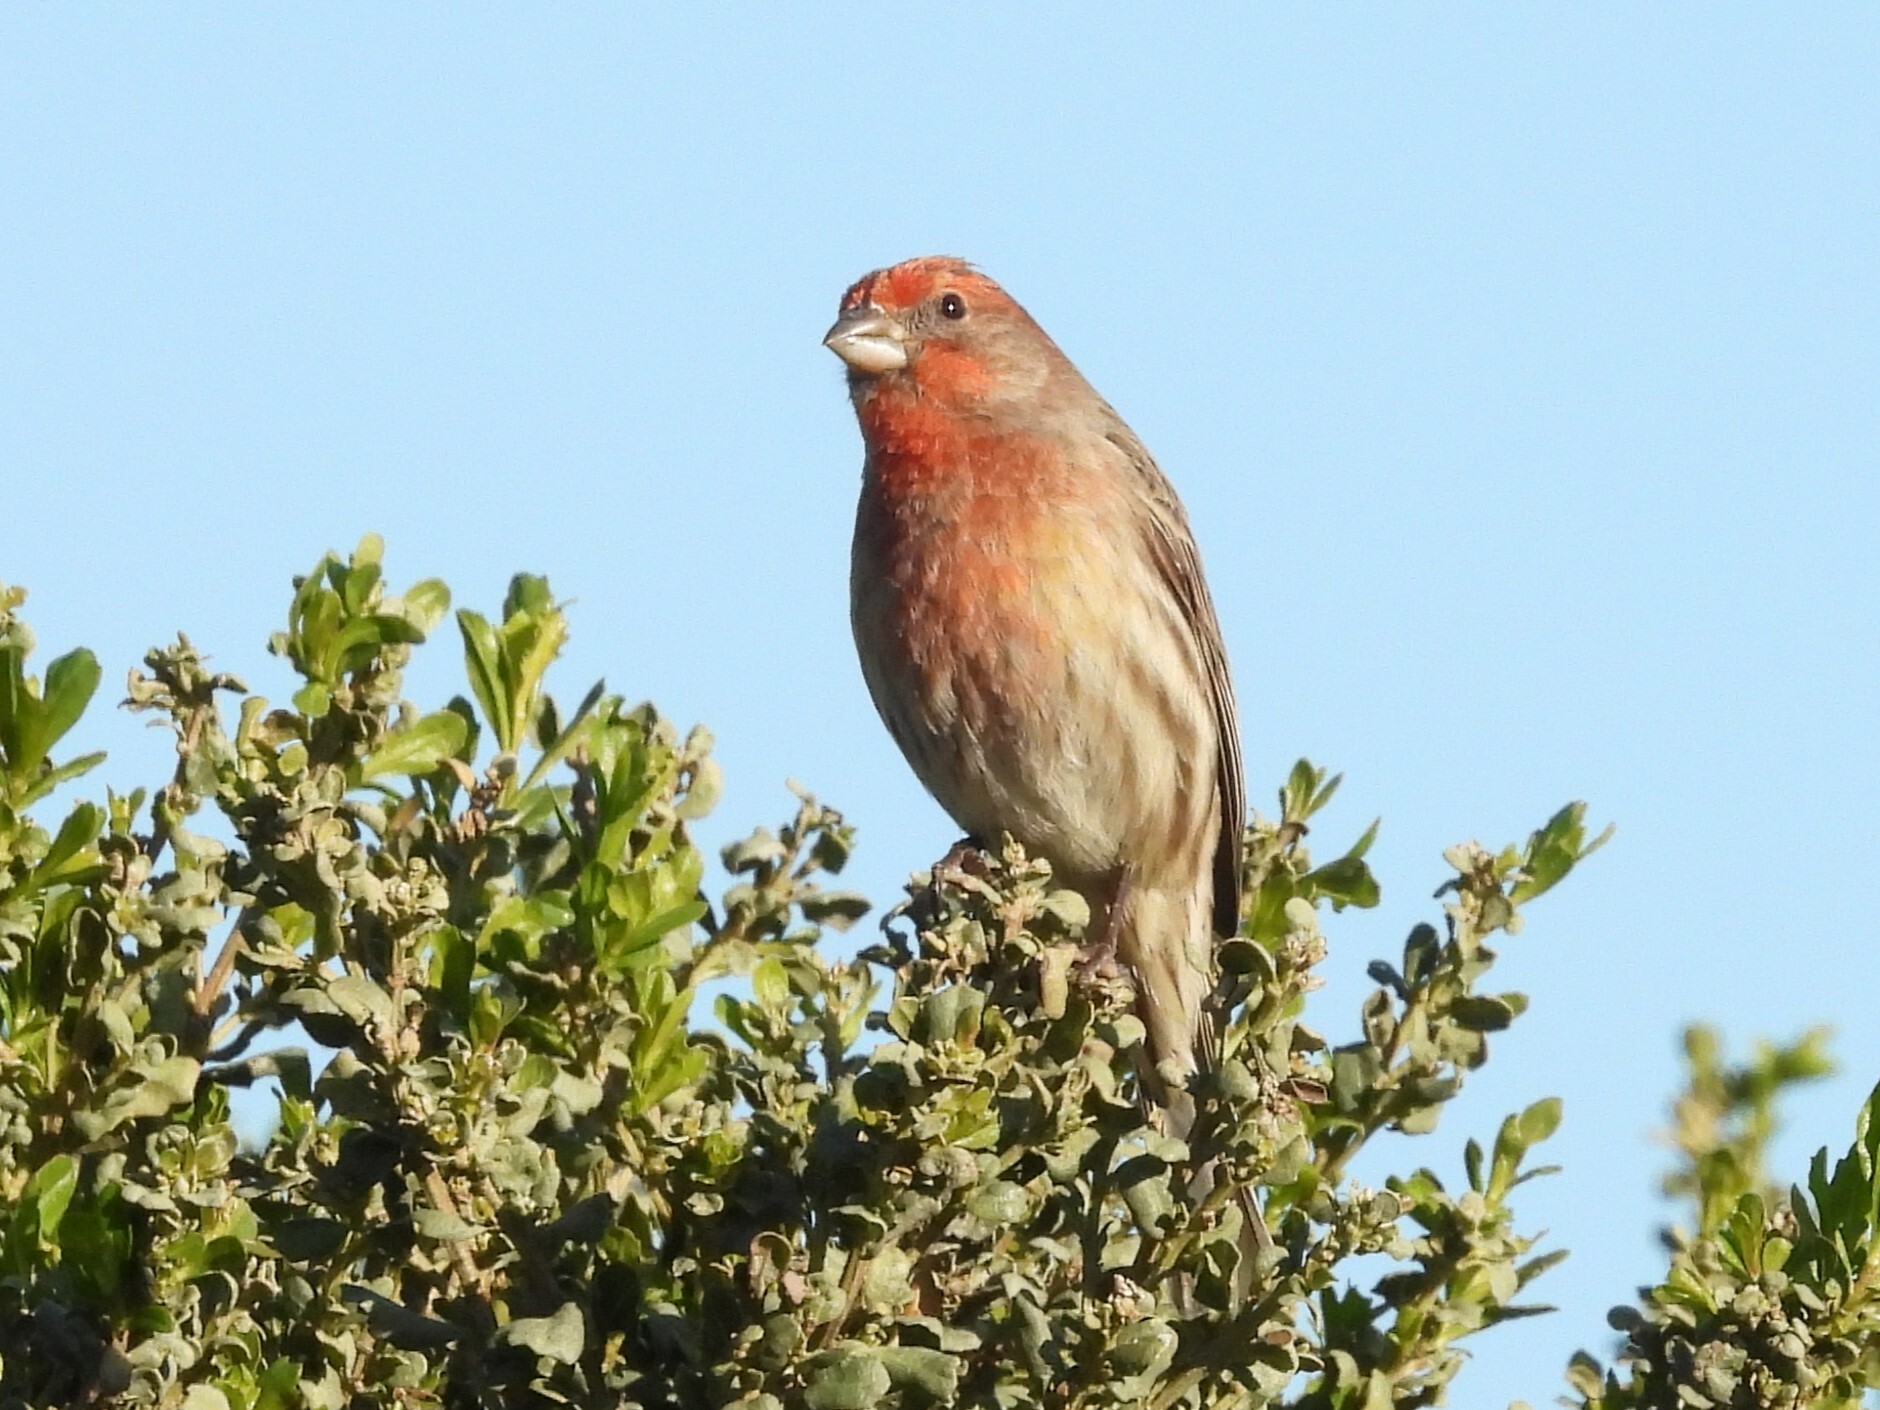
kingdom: Animalia
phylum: Chordata
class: Aves
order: Passeriformes
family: Fringillidae
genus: Haemorhous
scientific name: Haemorhous mexicanus
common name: House finch
